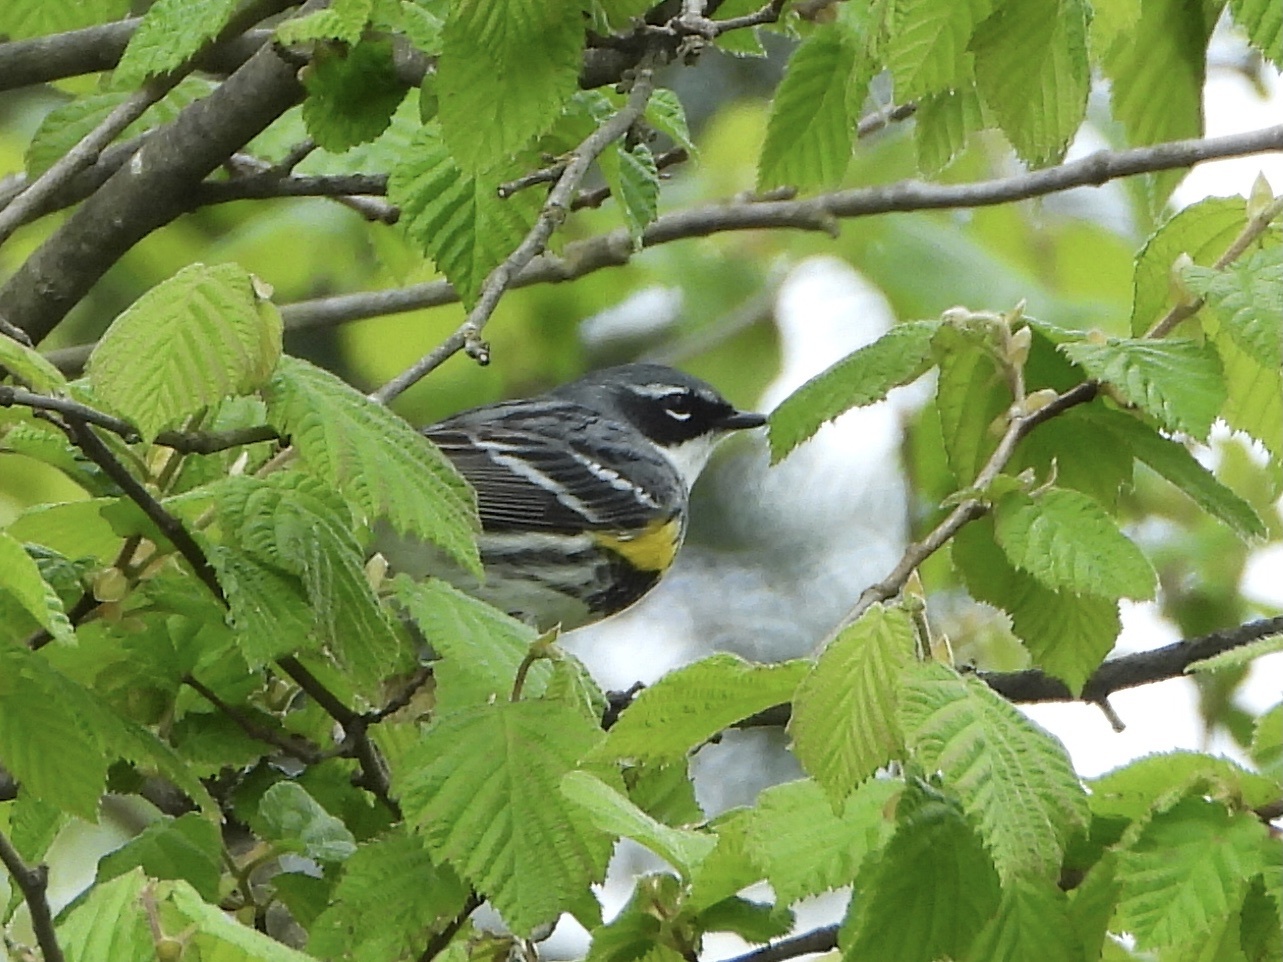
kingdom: Animalia
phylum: Chordata
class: Aves
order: Passeriformes
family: Parulidae
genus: Setophaga
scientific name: Setophaga coronata
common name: Myrtle warbler
